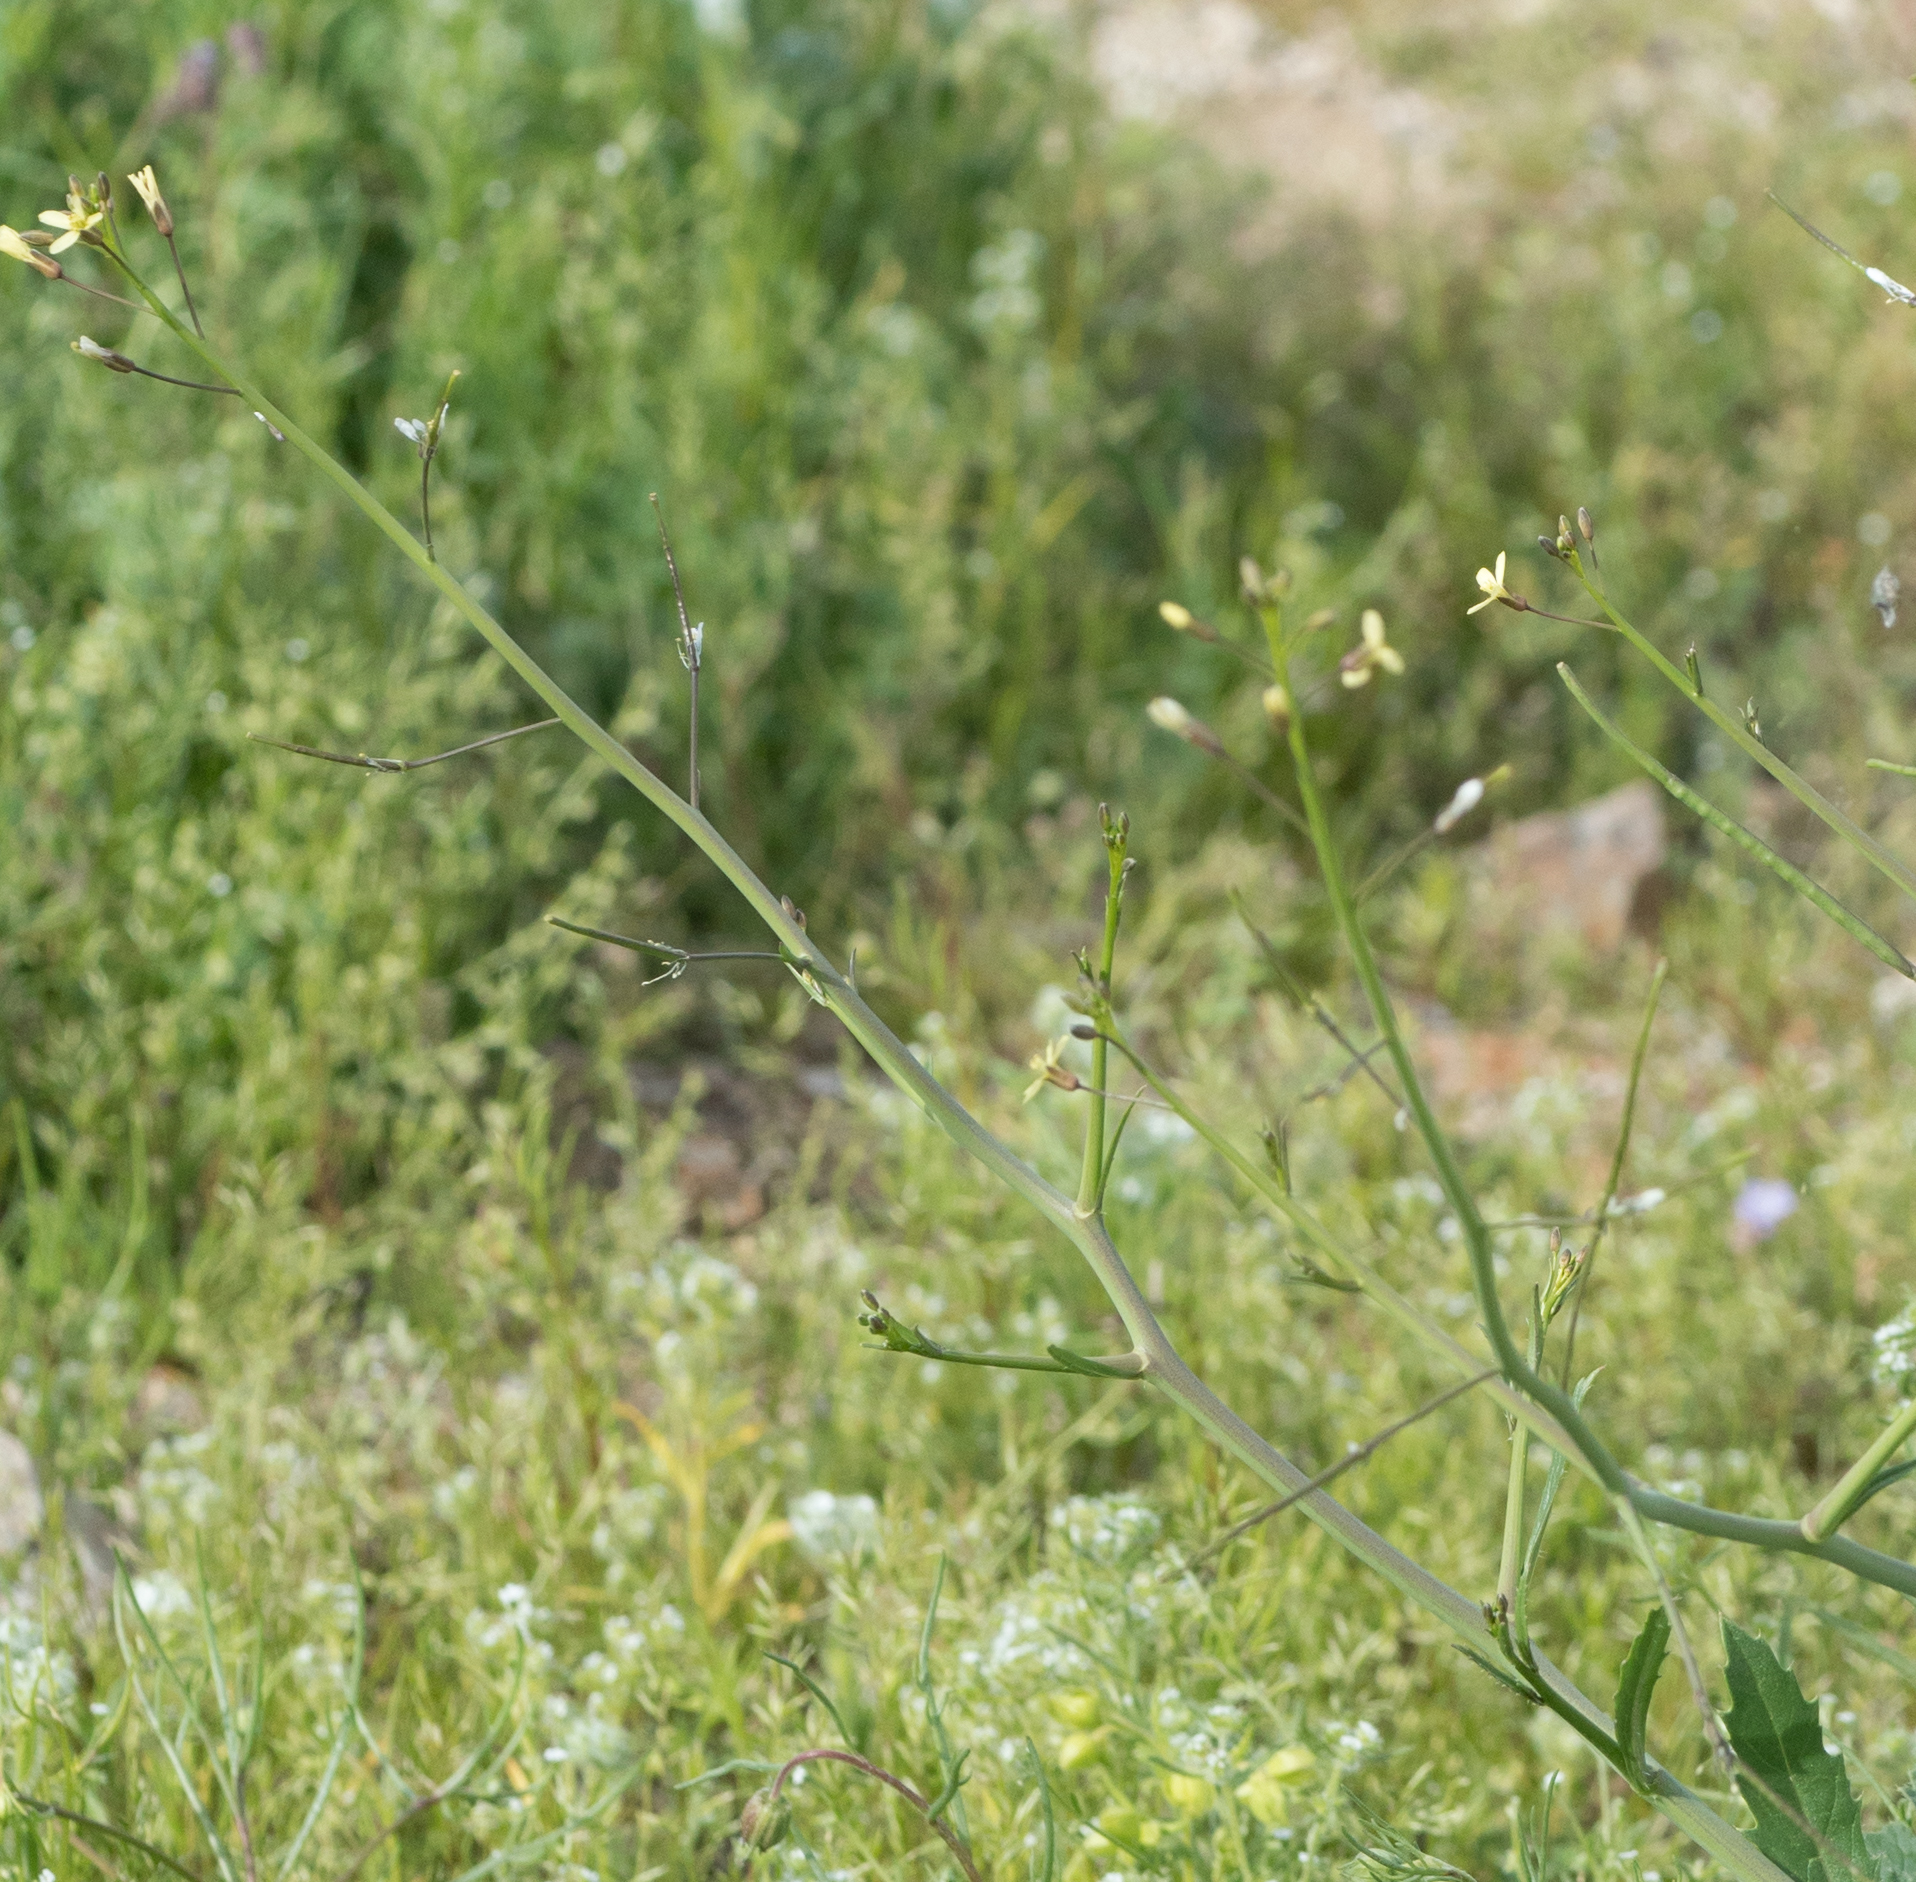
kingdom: Plantae
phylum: Tracheophyta
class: Magnoliopsida
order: Brassicales
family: Brassicaceae
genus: Brassica
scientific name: Brassica tournefortii
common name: Pale cabbage
